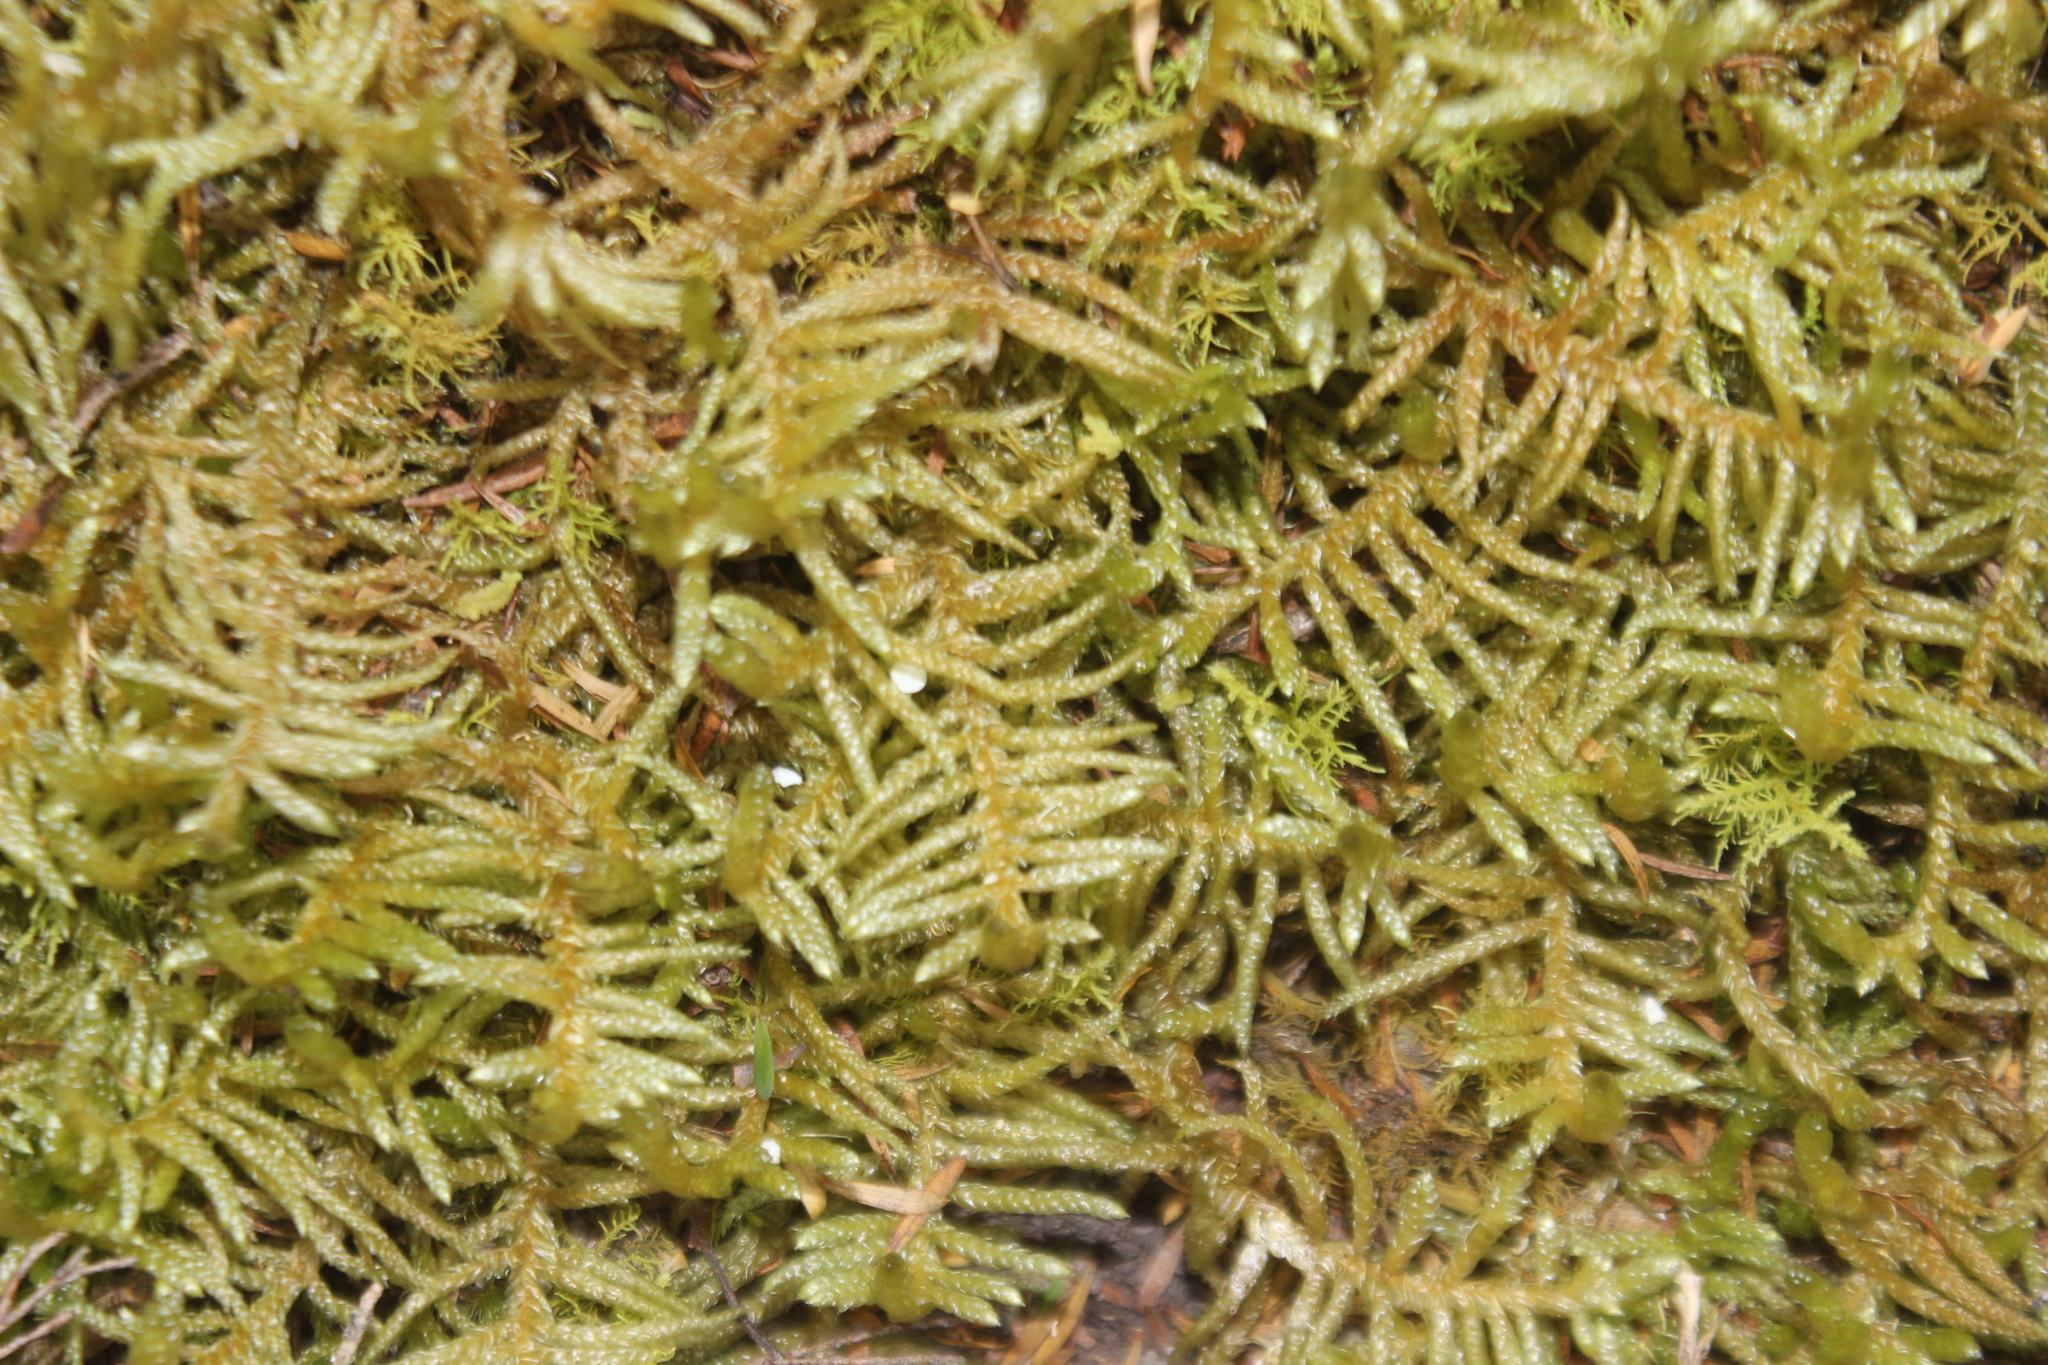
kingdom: Plantae
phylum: Bryophyta
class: Bryopsida
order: Hypnales
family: Brachytheciaceae
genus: Pseudoscleropodium
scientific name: Pseudoscleropodium purum
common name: Neat feather-moss
